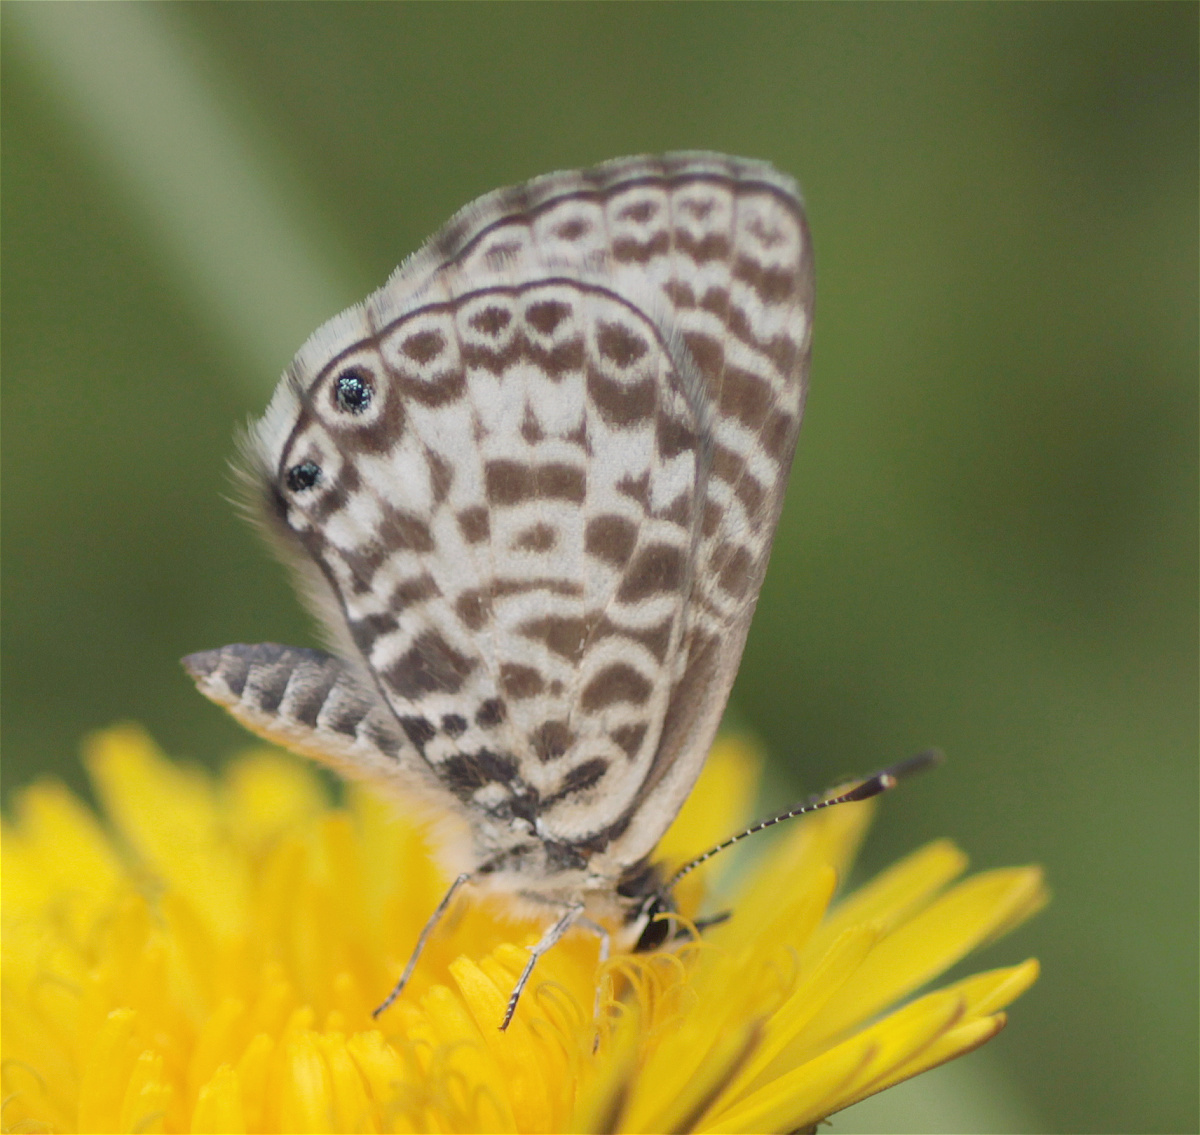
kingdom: Animalia
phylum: Arthropoda
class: Insecta
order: Lepidoptera
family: Lycaenidae
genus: Leptotes
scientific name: Leptotes cassius
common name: Cassius blue
